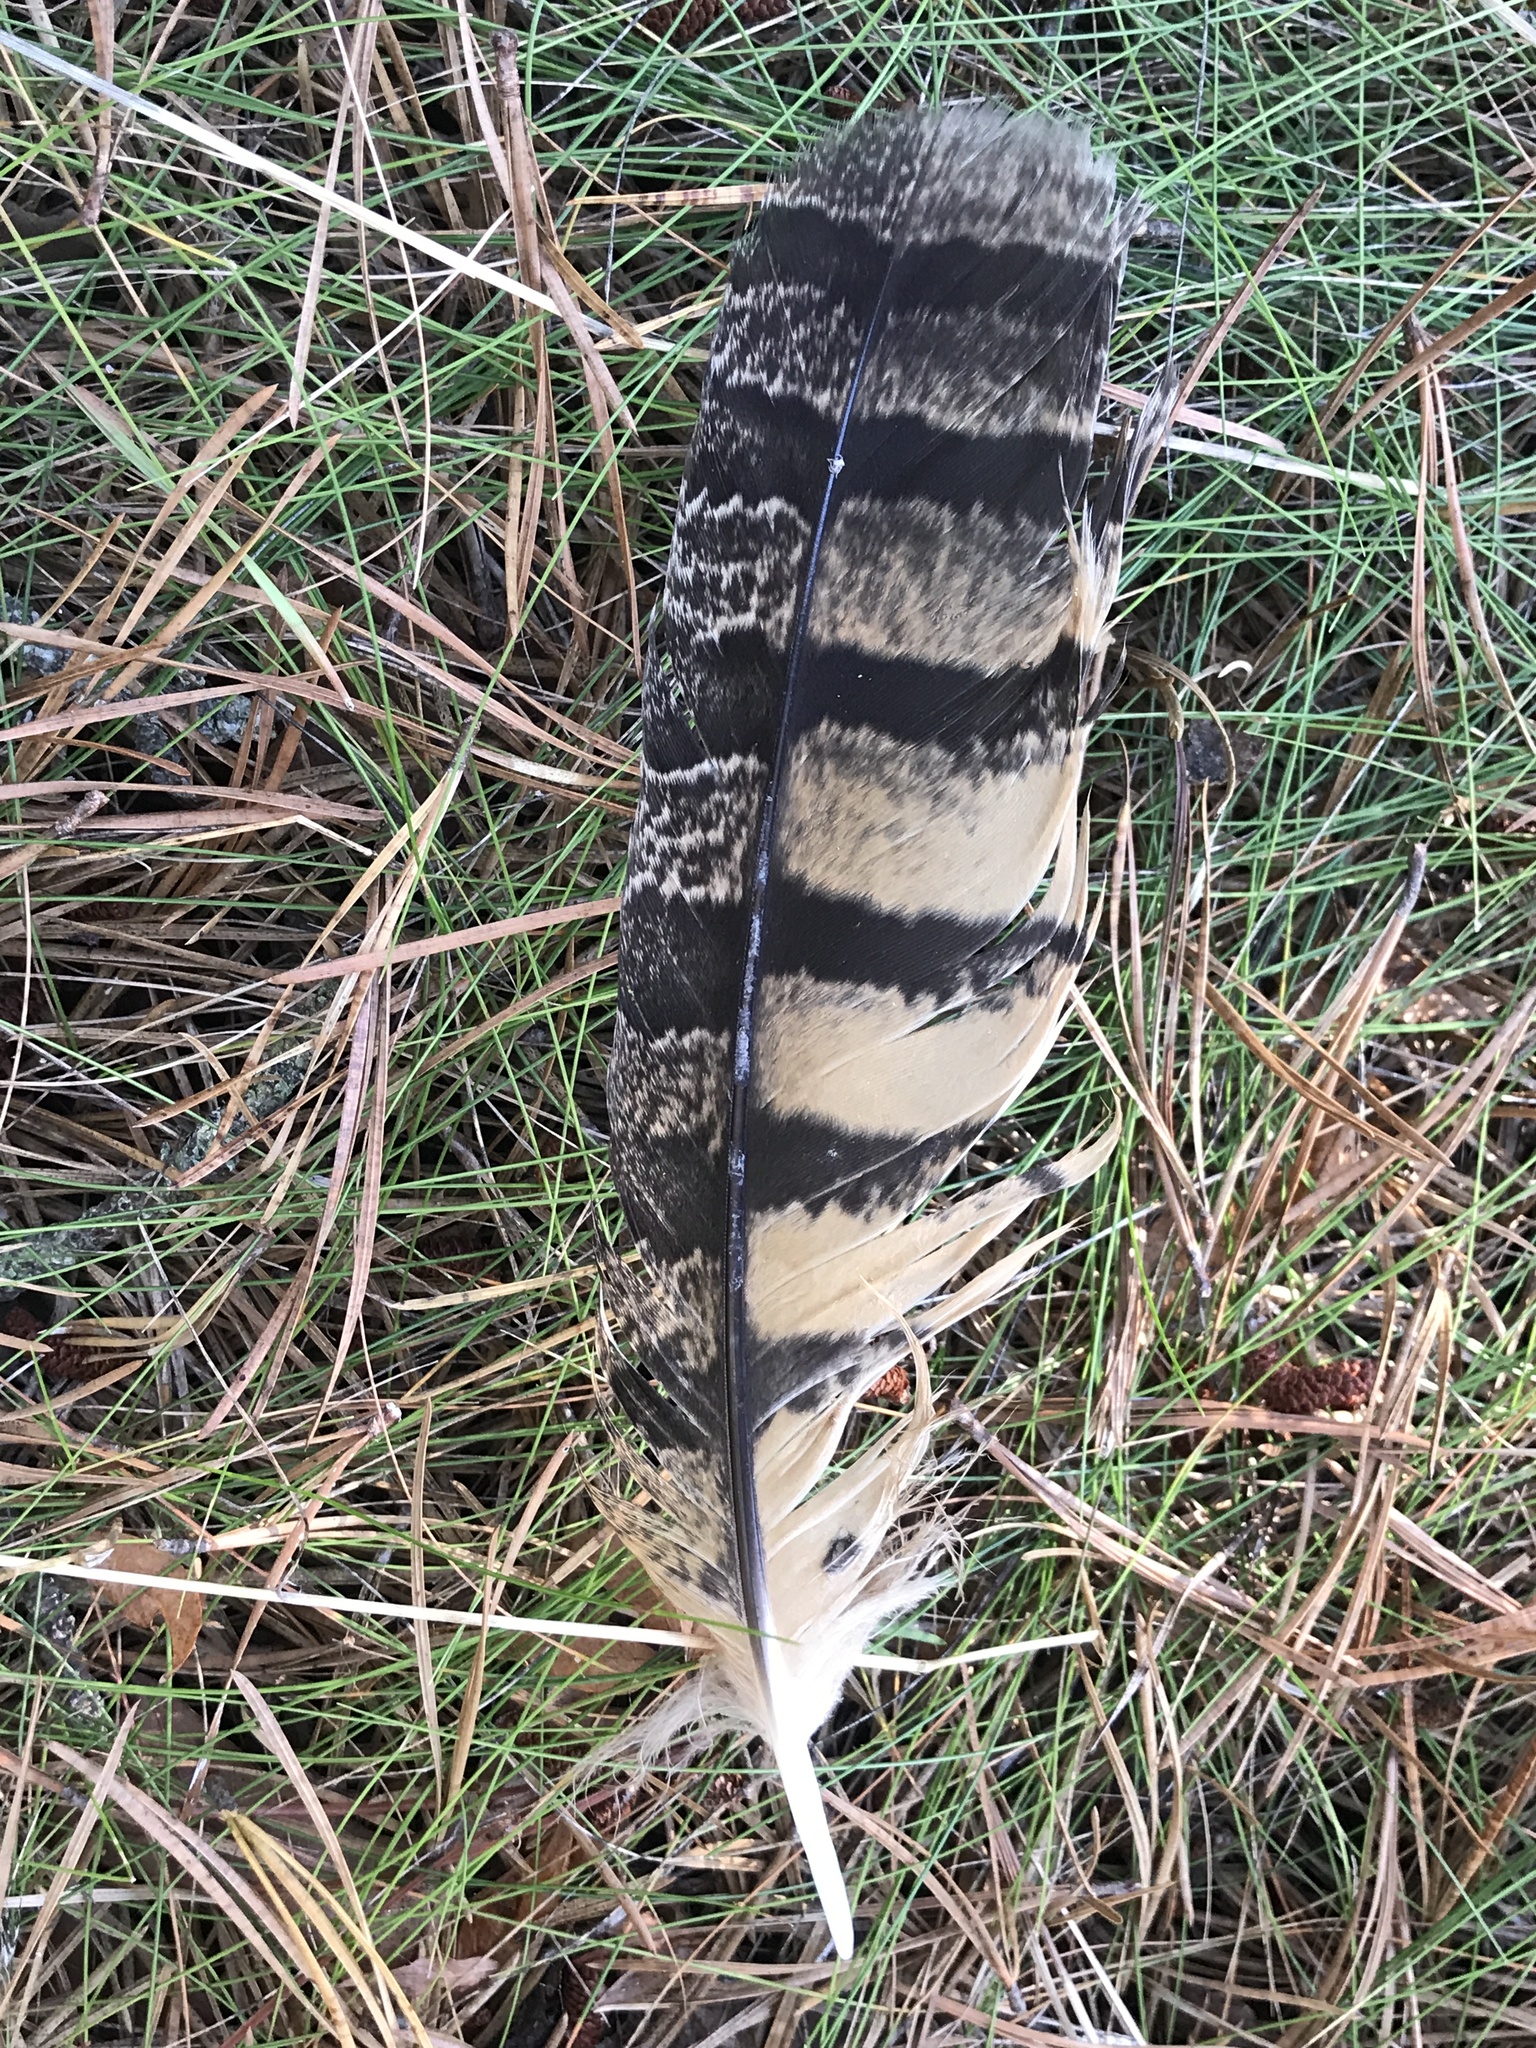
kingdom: Animalia
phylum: Chordata
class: Aves
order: Strigiformes
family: Strigidae
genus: Bubo
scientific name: Bubo virginianus
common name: Great horned owl
